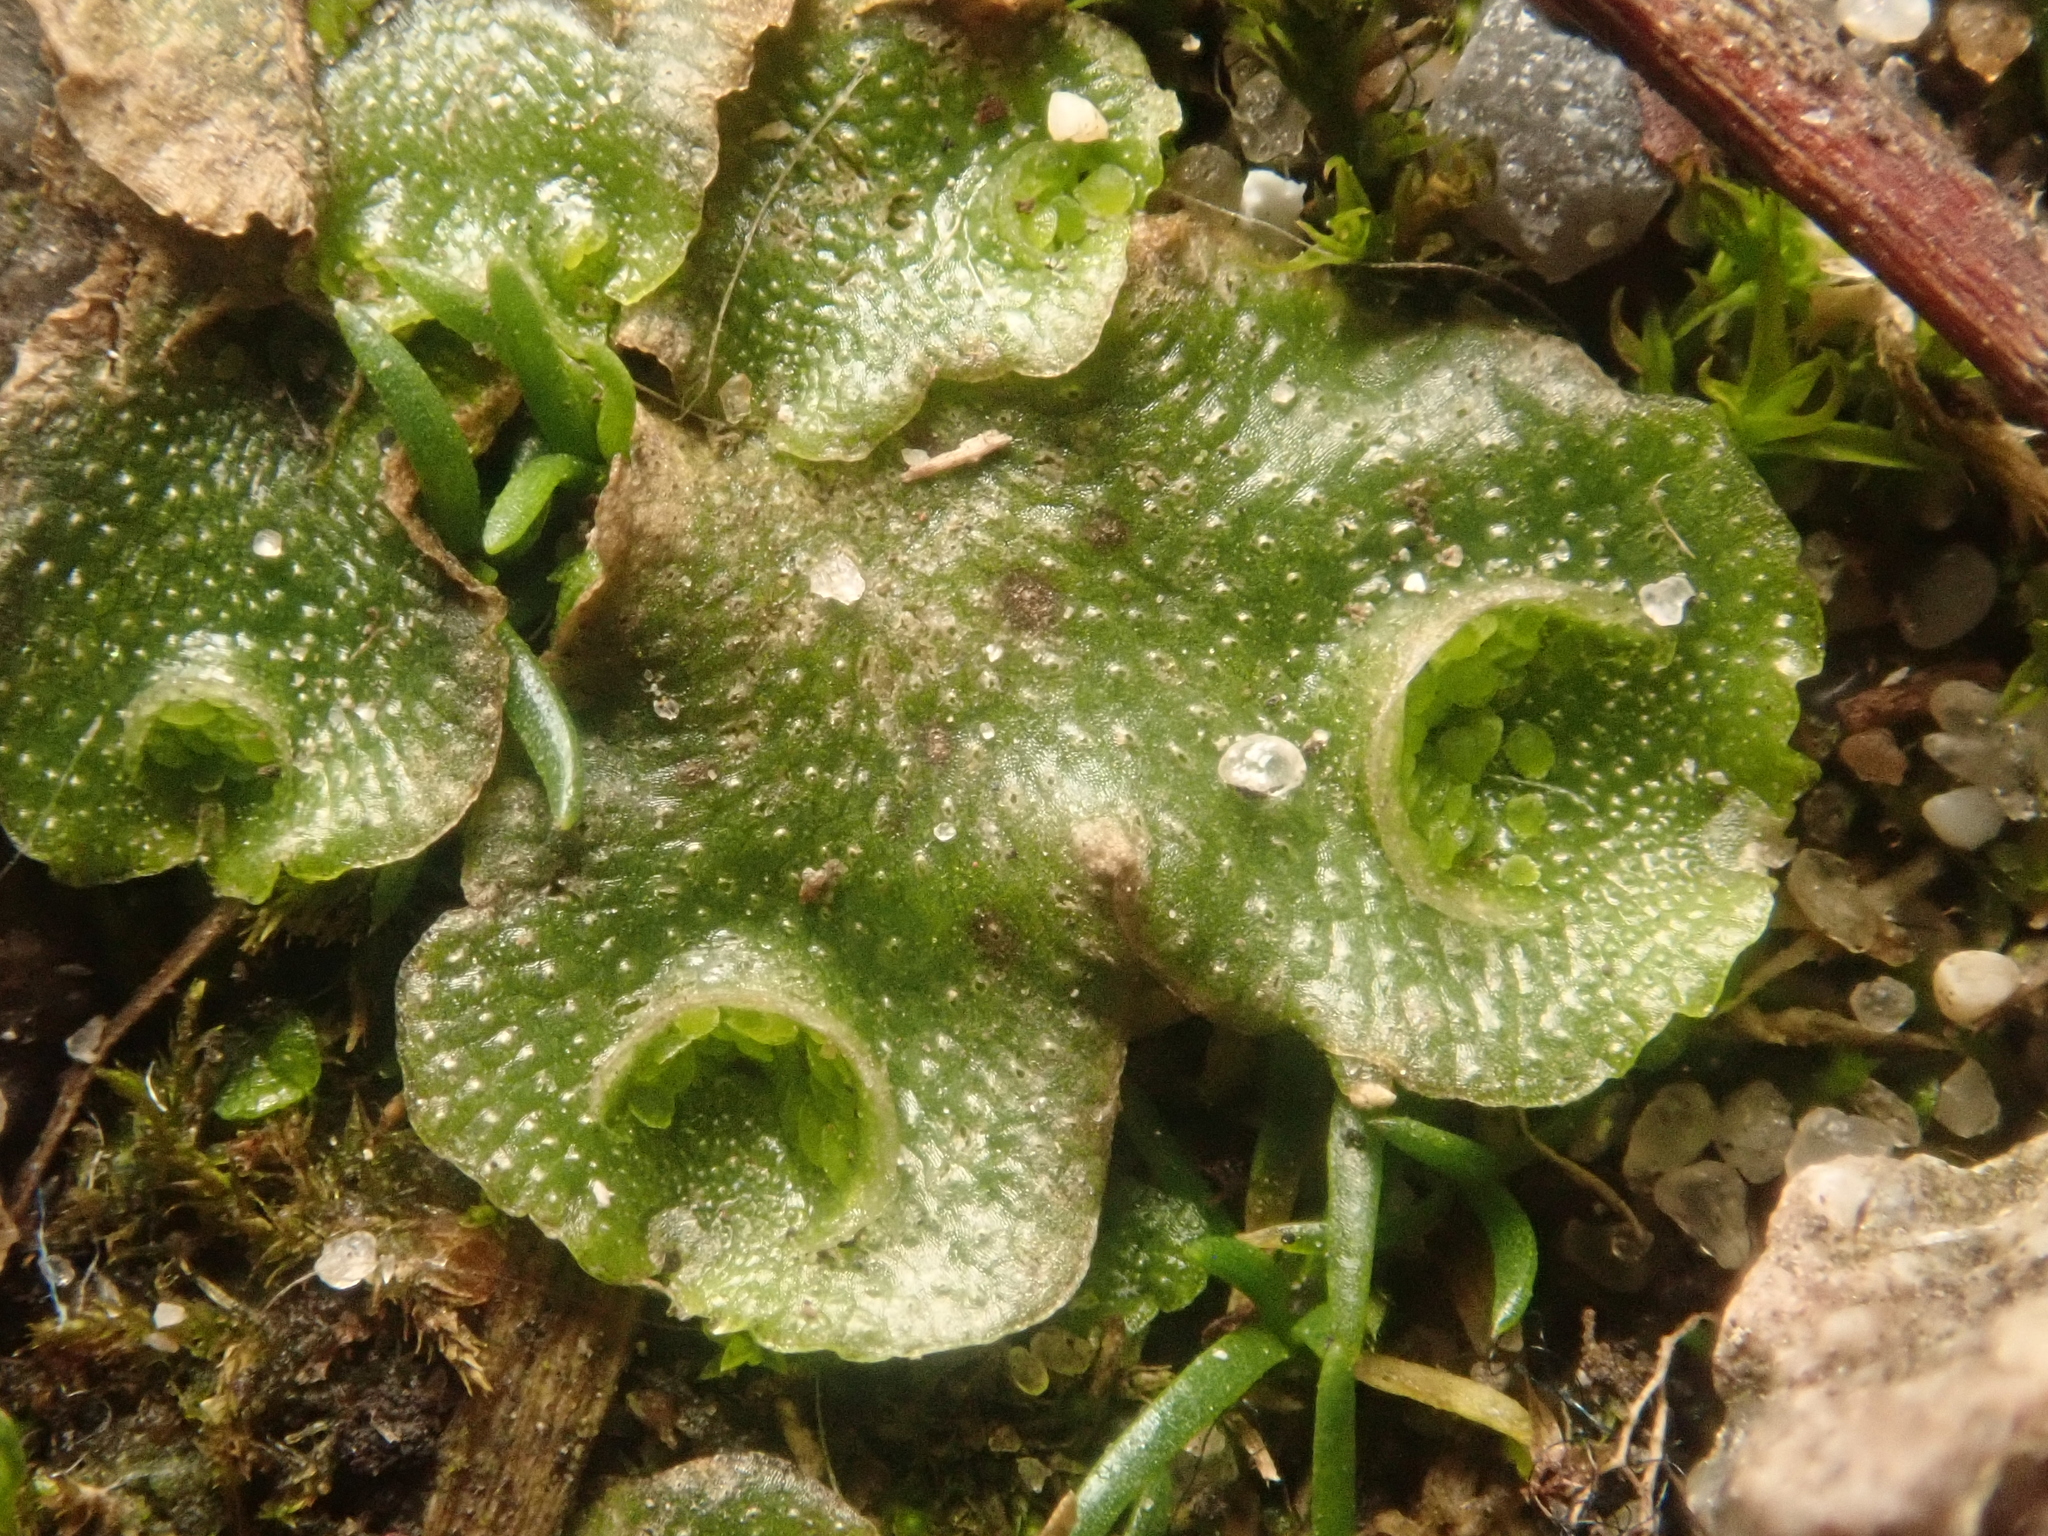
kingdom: Plantae
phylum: Marchantiophyta
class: Marchantiopsida
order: Lunulariales
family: Lunulariaceae
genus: Lunularia
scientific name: Lunularia cruciata
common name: Crescent-cup liverwort
